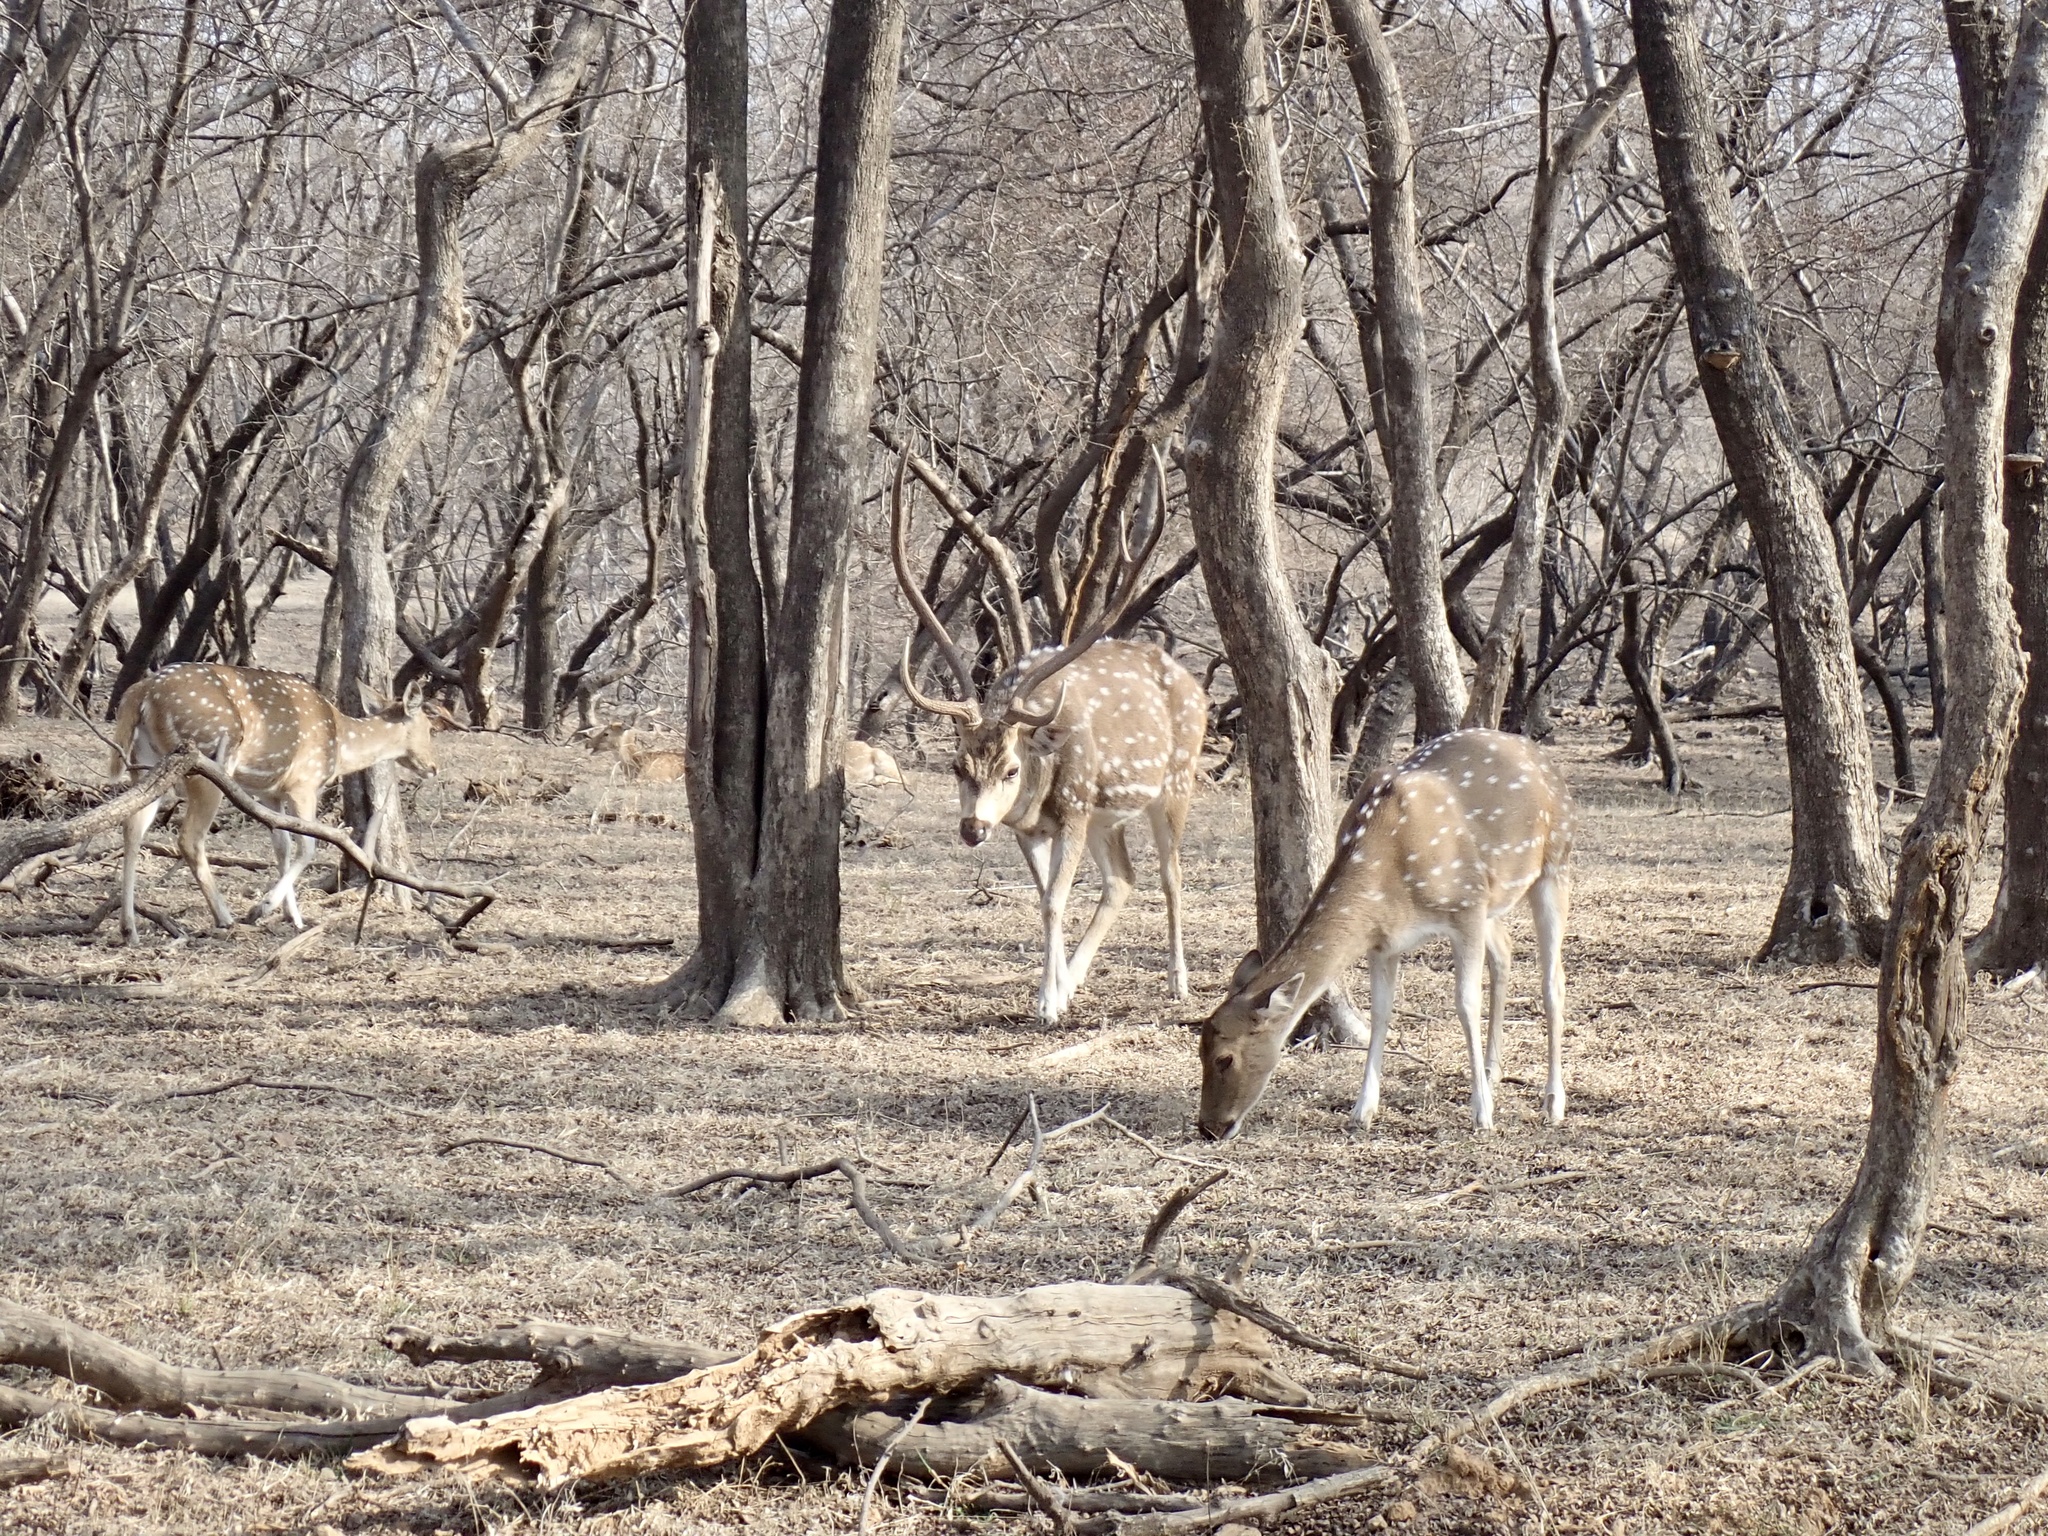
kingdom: Animalia
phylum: Chordata
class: Mammalia
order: Artiodactyla
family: Cervidae
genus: Axis
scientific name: Axis axis
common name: Chital
